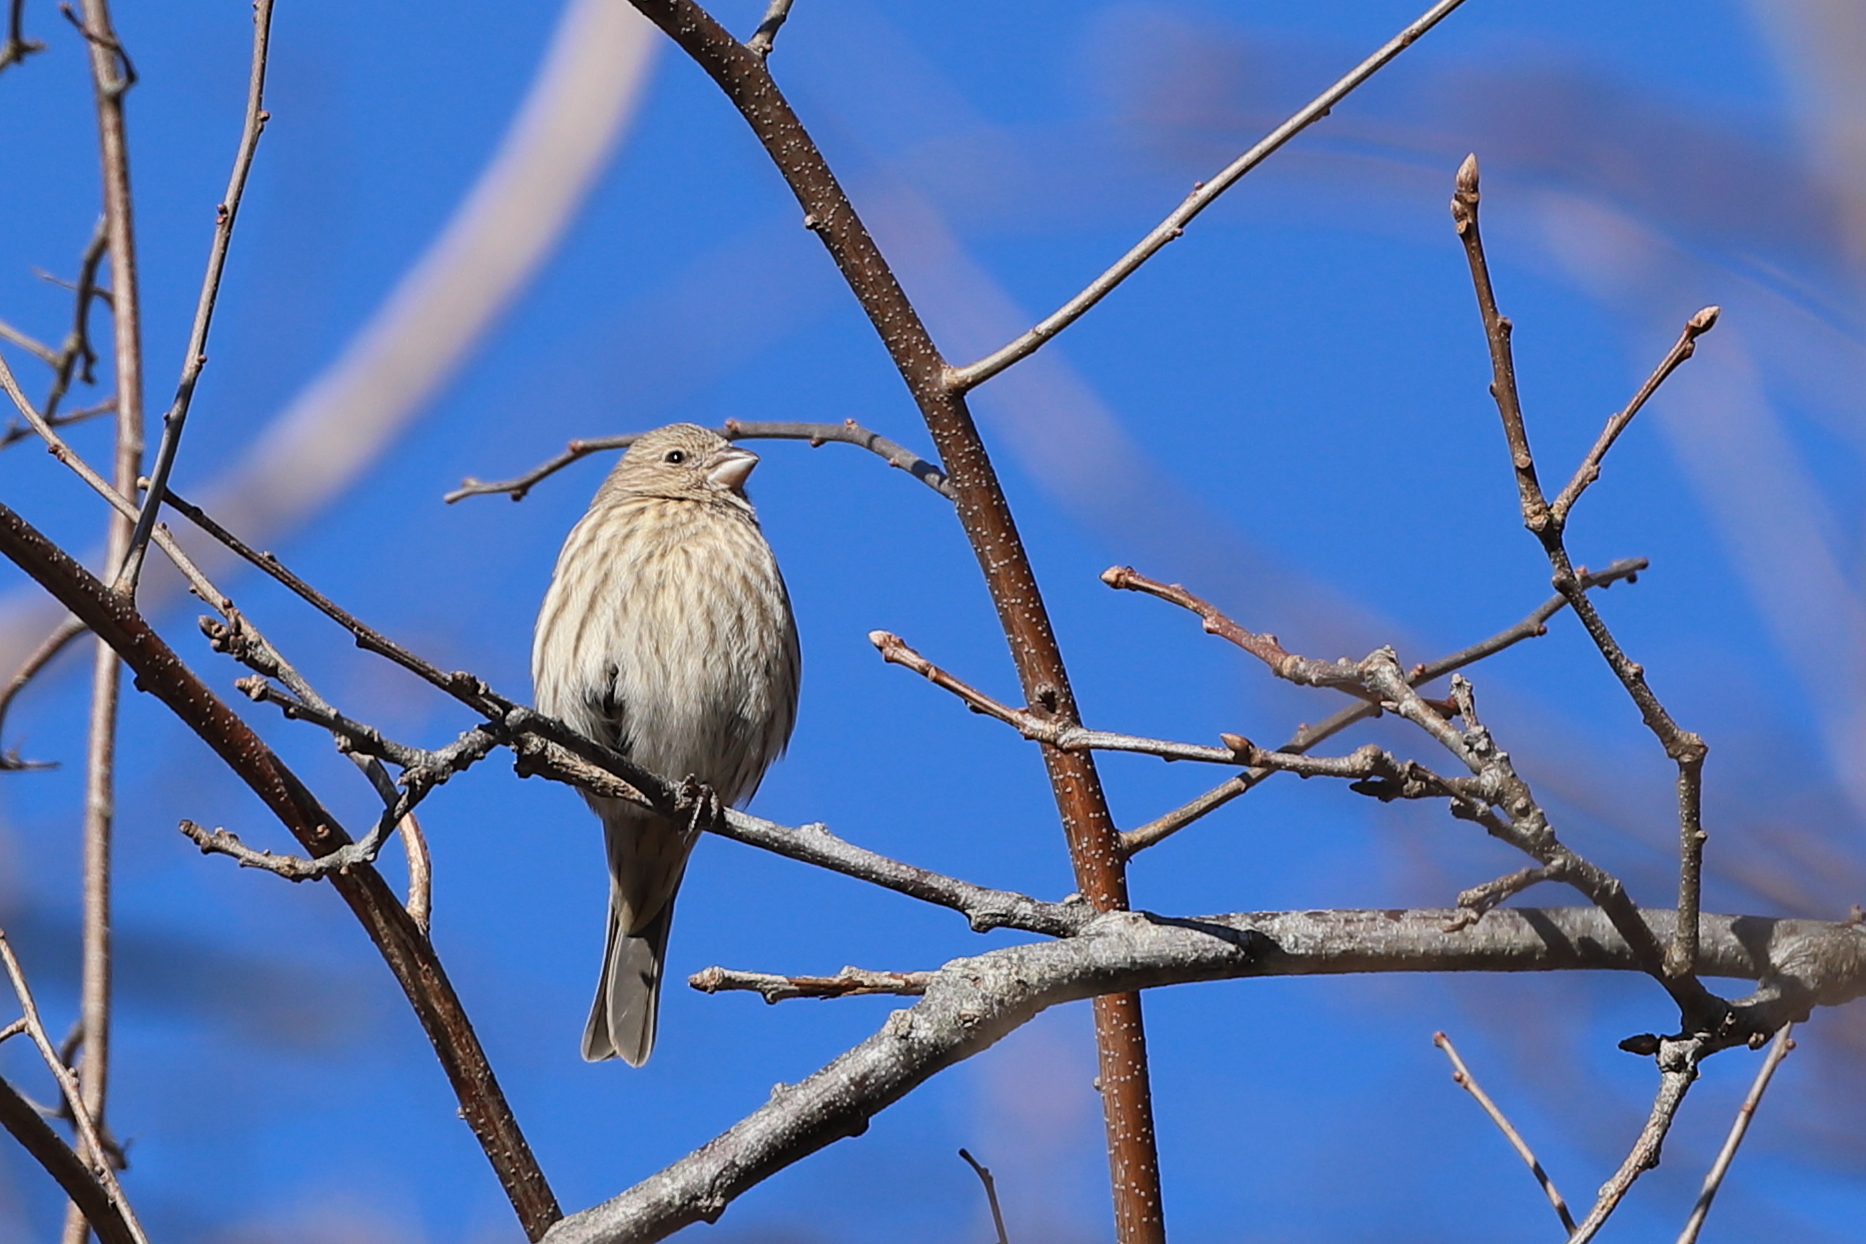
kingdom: Animalia
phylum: Chordata
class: Aves
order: Passeriformes
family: Fringillidae
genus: Haemorhous
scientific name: Haemorhous mexicanus
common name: House finch
